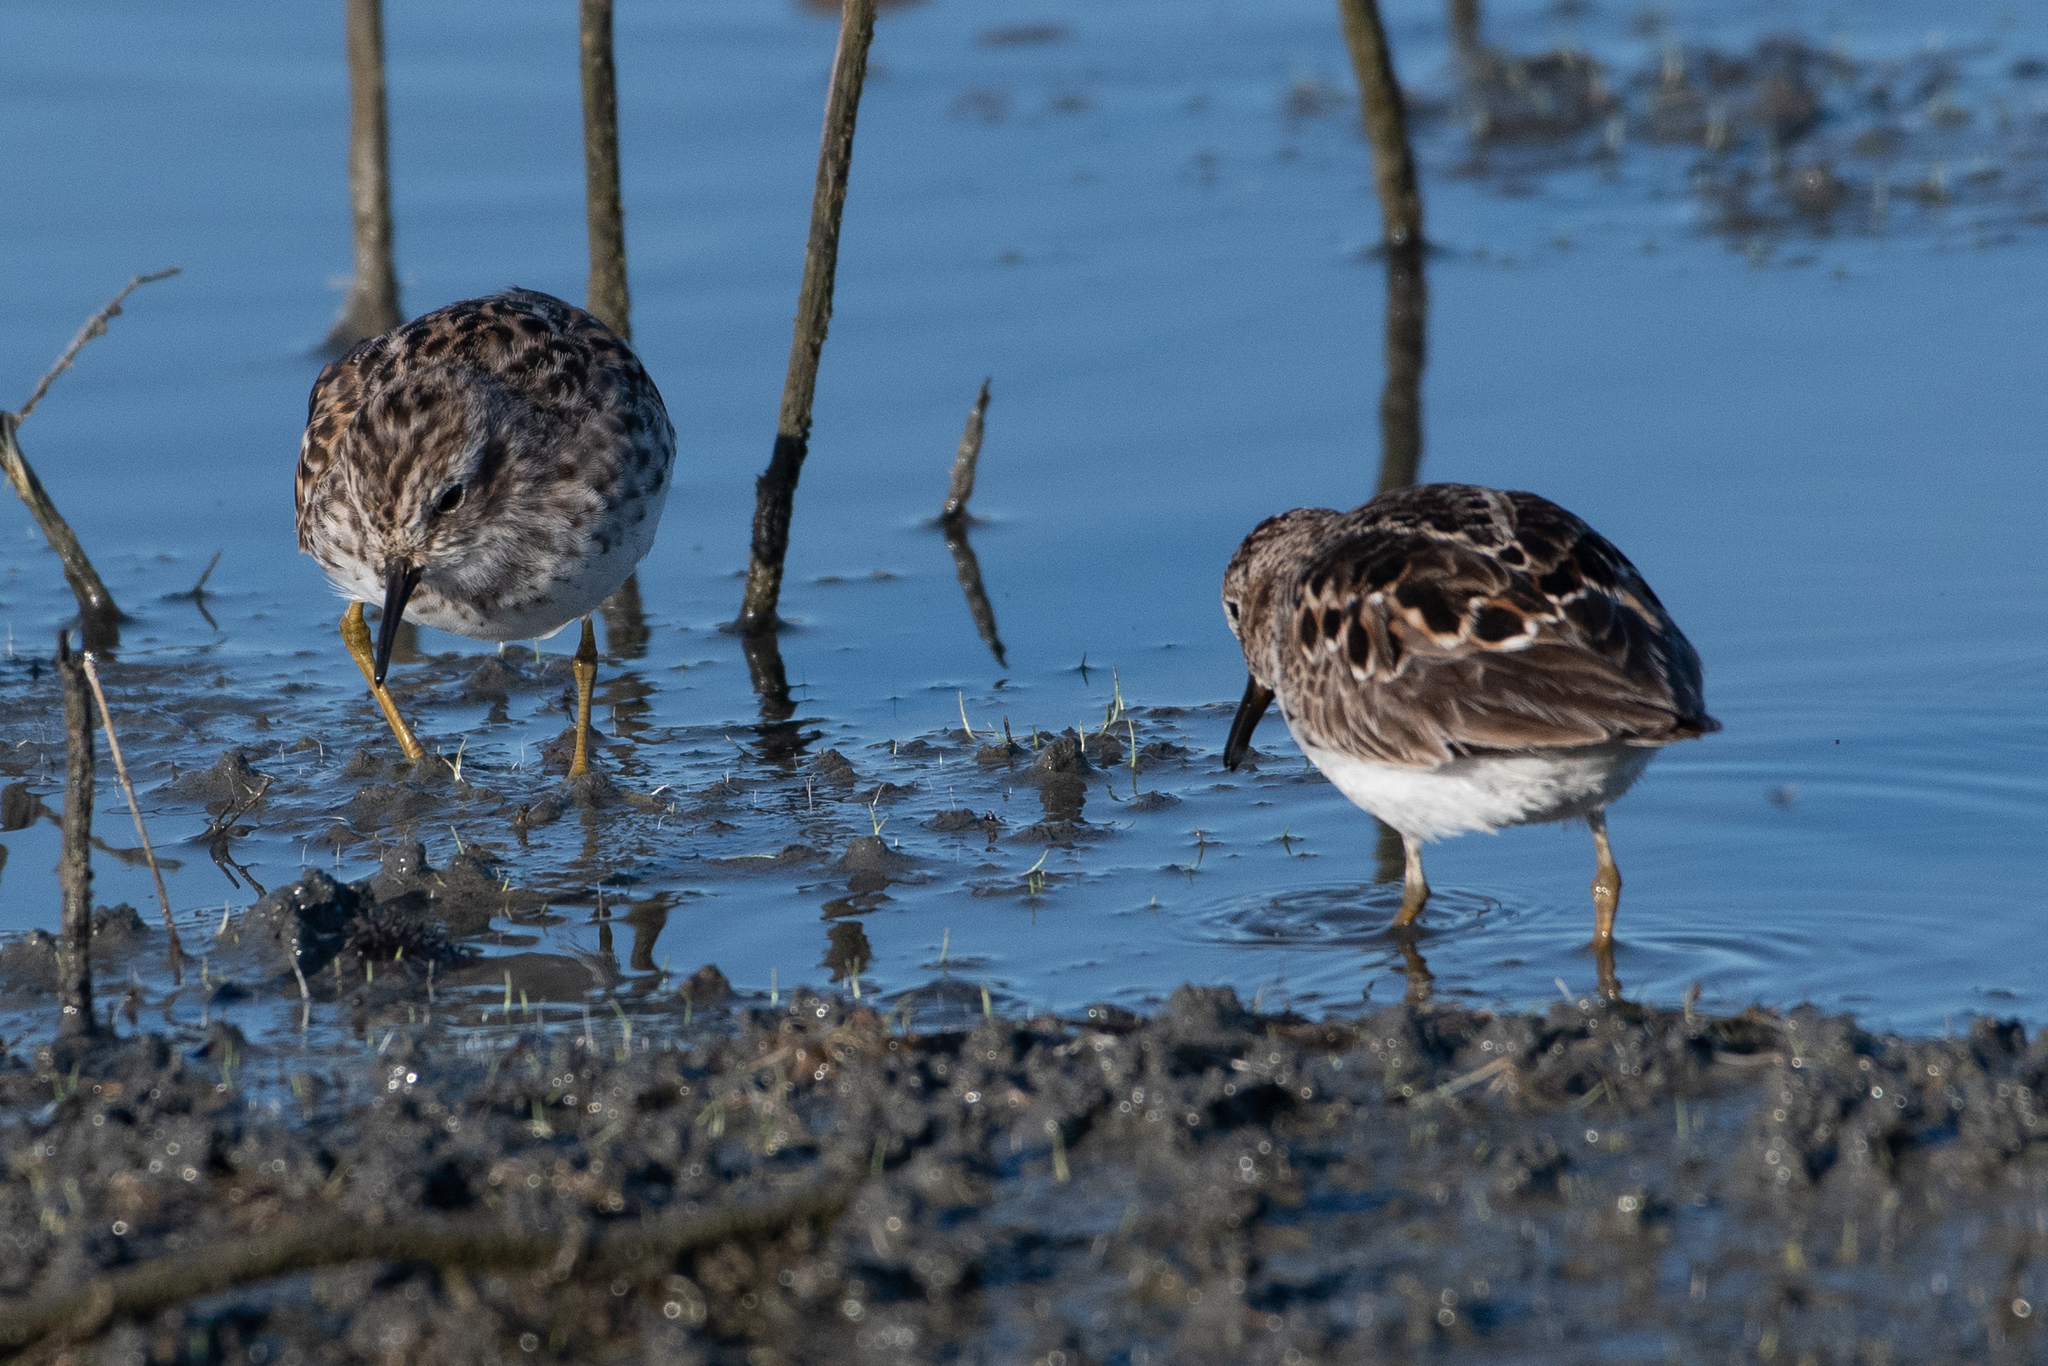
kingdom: Animalia
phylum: Chordata
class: Aves
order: Charadriiformes
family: Scolopacidae
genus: Calidris
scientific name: Calidris minutilla
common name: Least sandpiper
